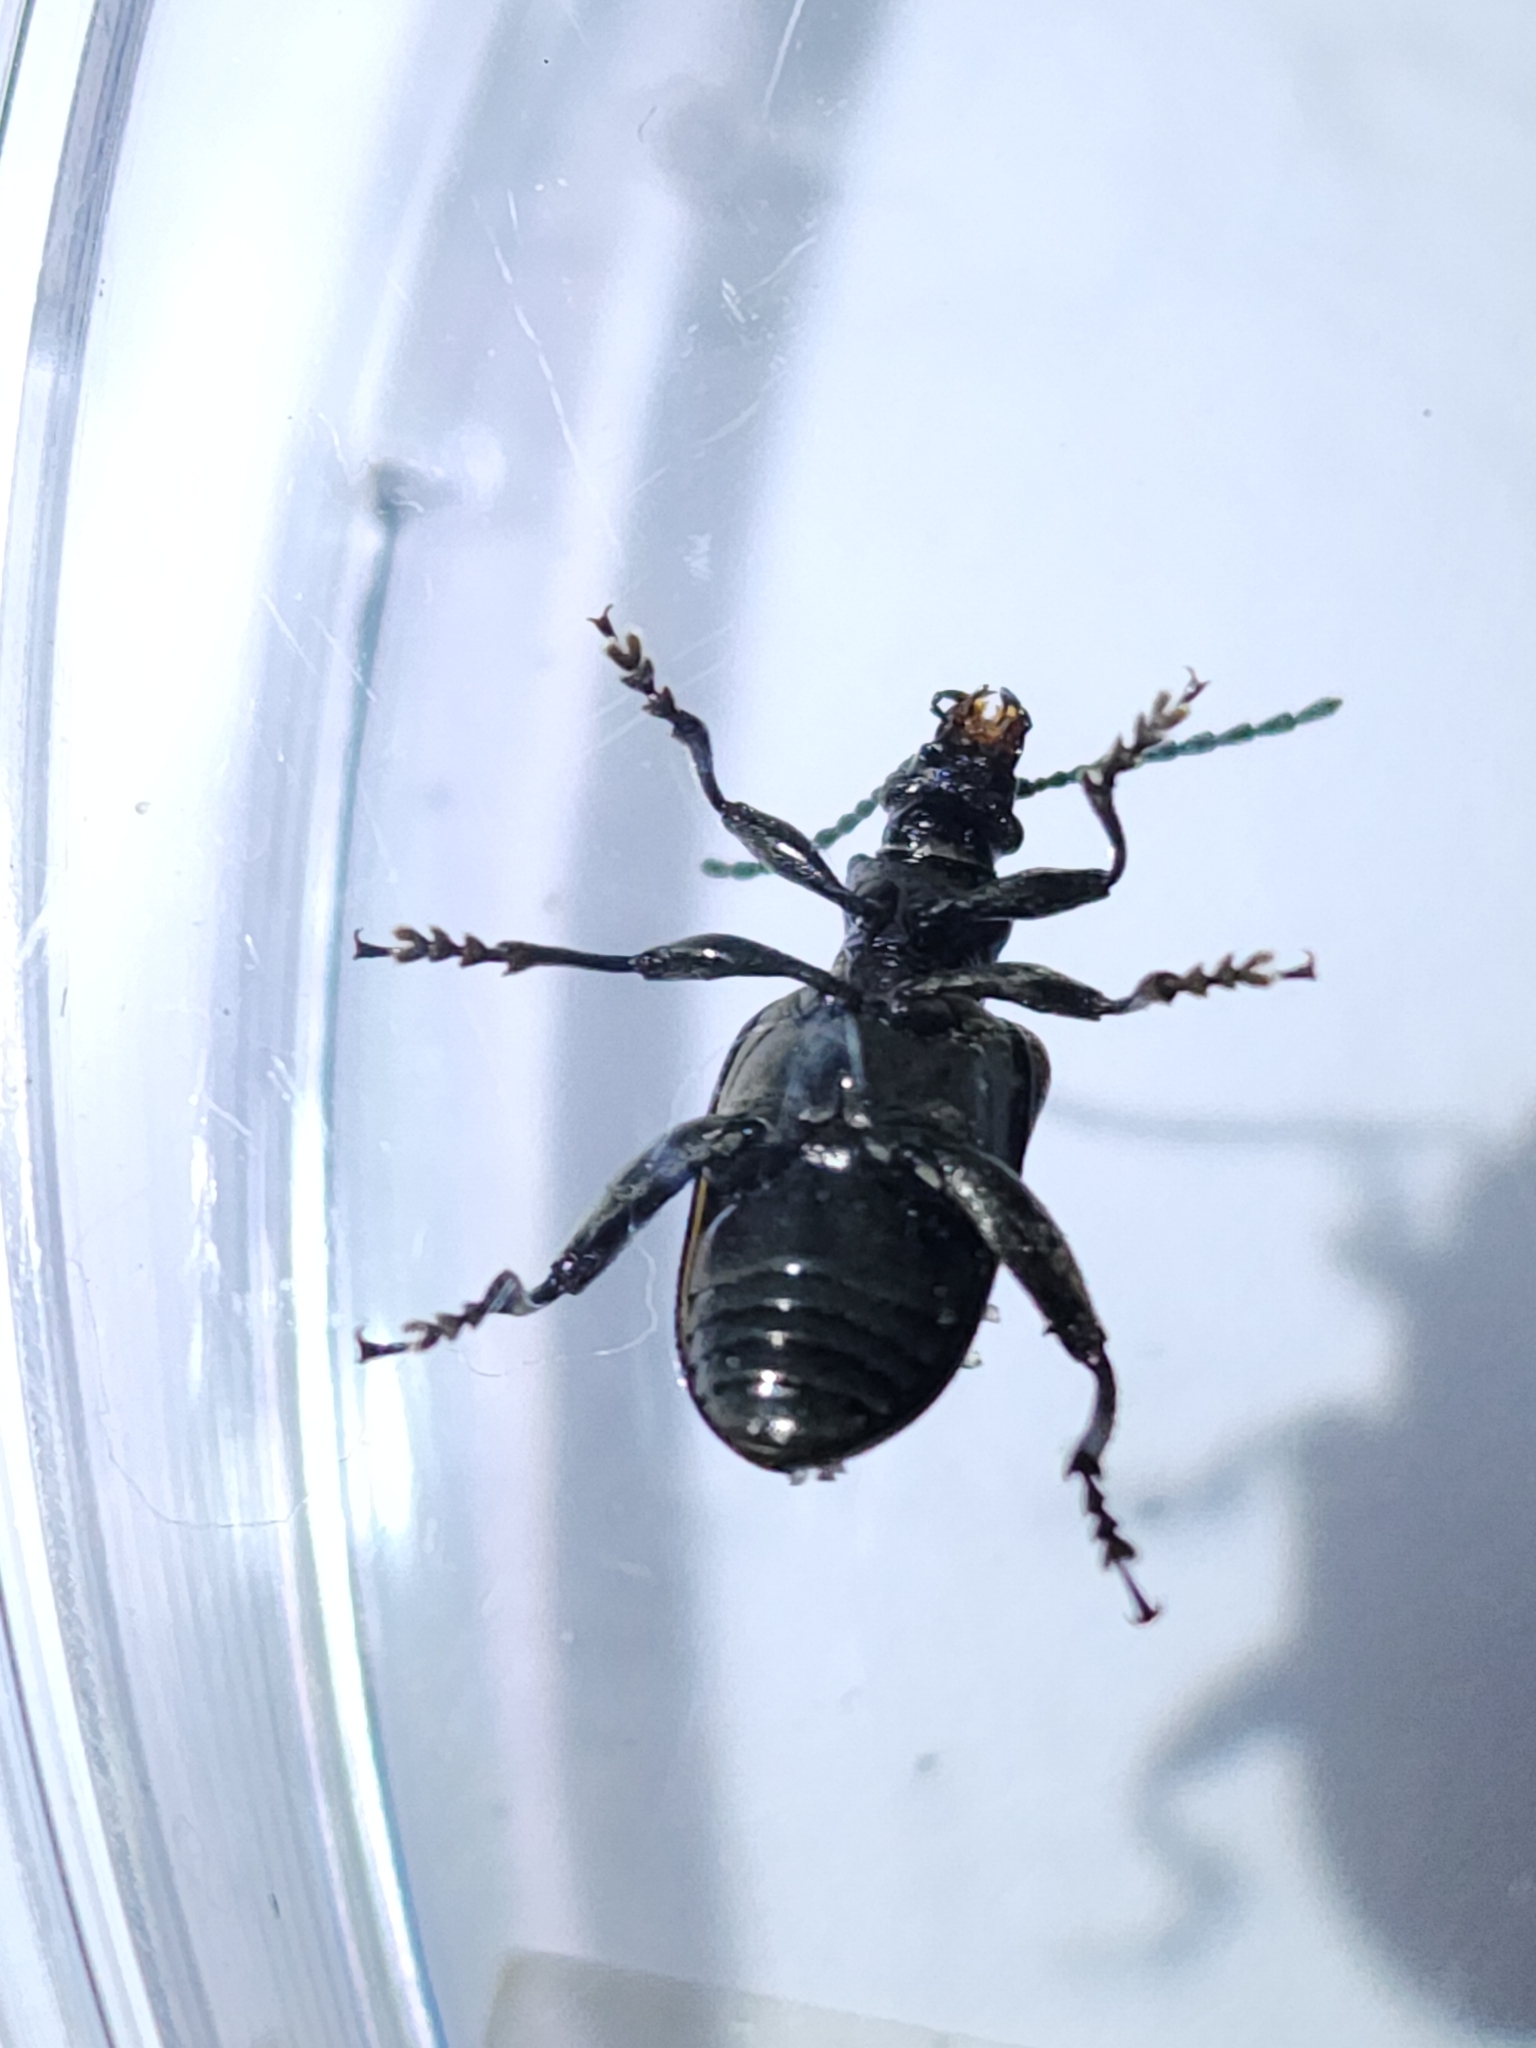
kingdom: Animalia
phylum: Arthropoda
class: Insecta
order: Coleoptera
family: Chrysomelidae
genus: Atalasis
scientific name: Atalasis
